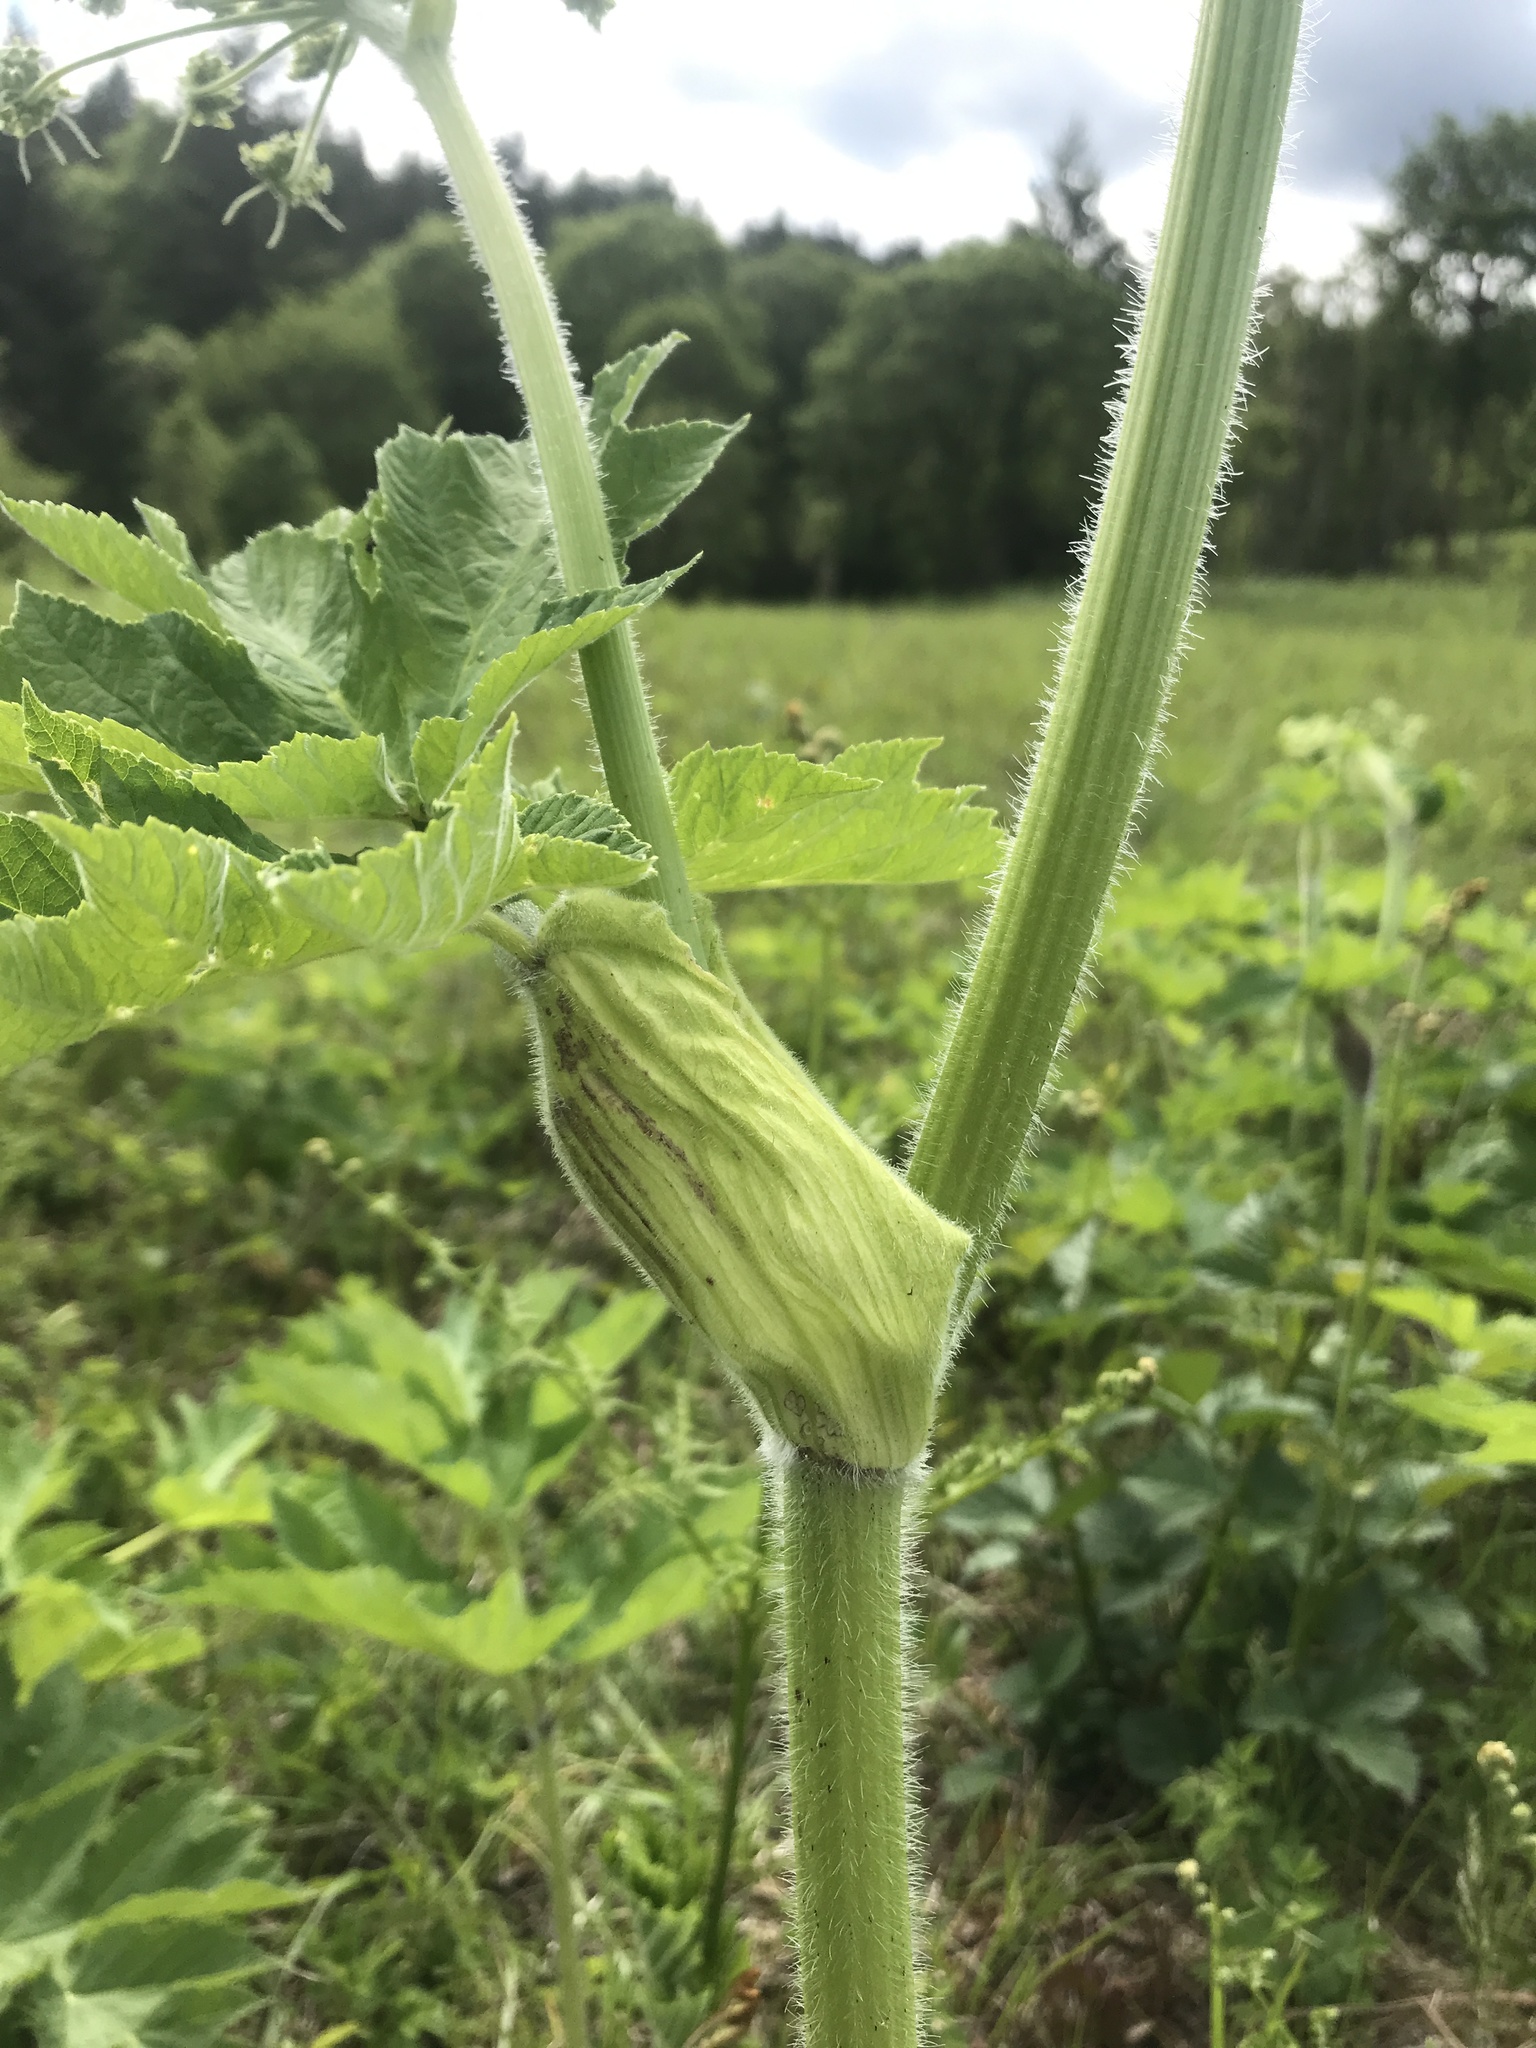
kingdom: Plantae
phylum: Tracheophyta
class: Magnoliopsida
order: Apiales
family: Apiaceae
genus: Heracleum
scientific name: Heracleum maximum
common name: American cow parsnip
